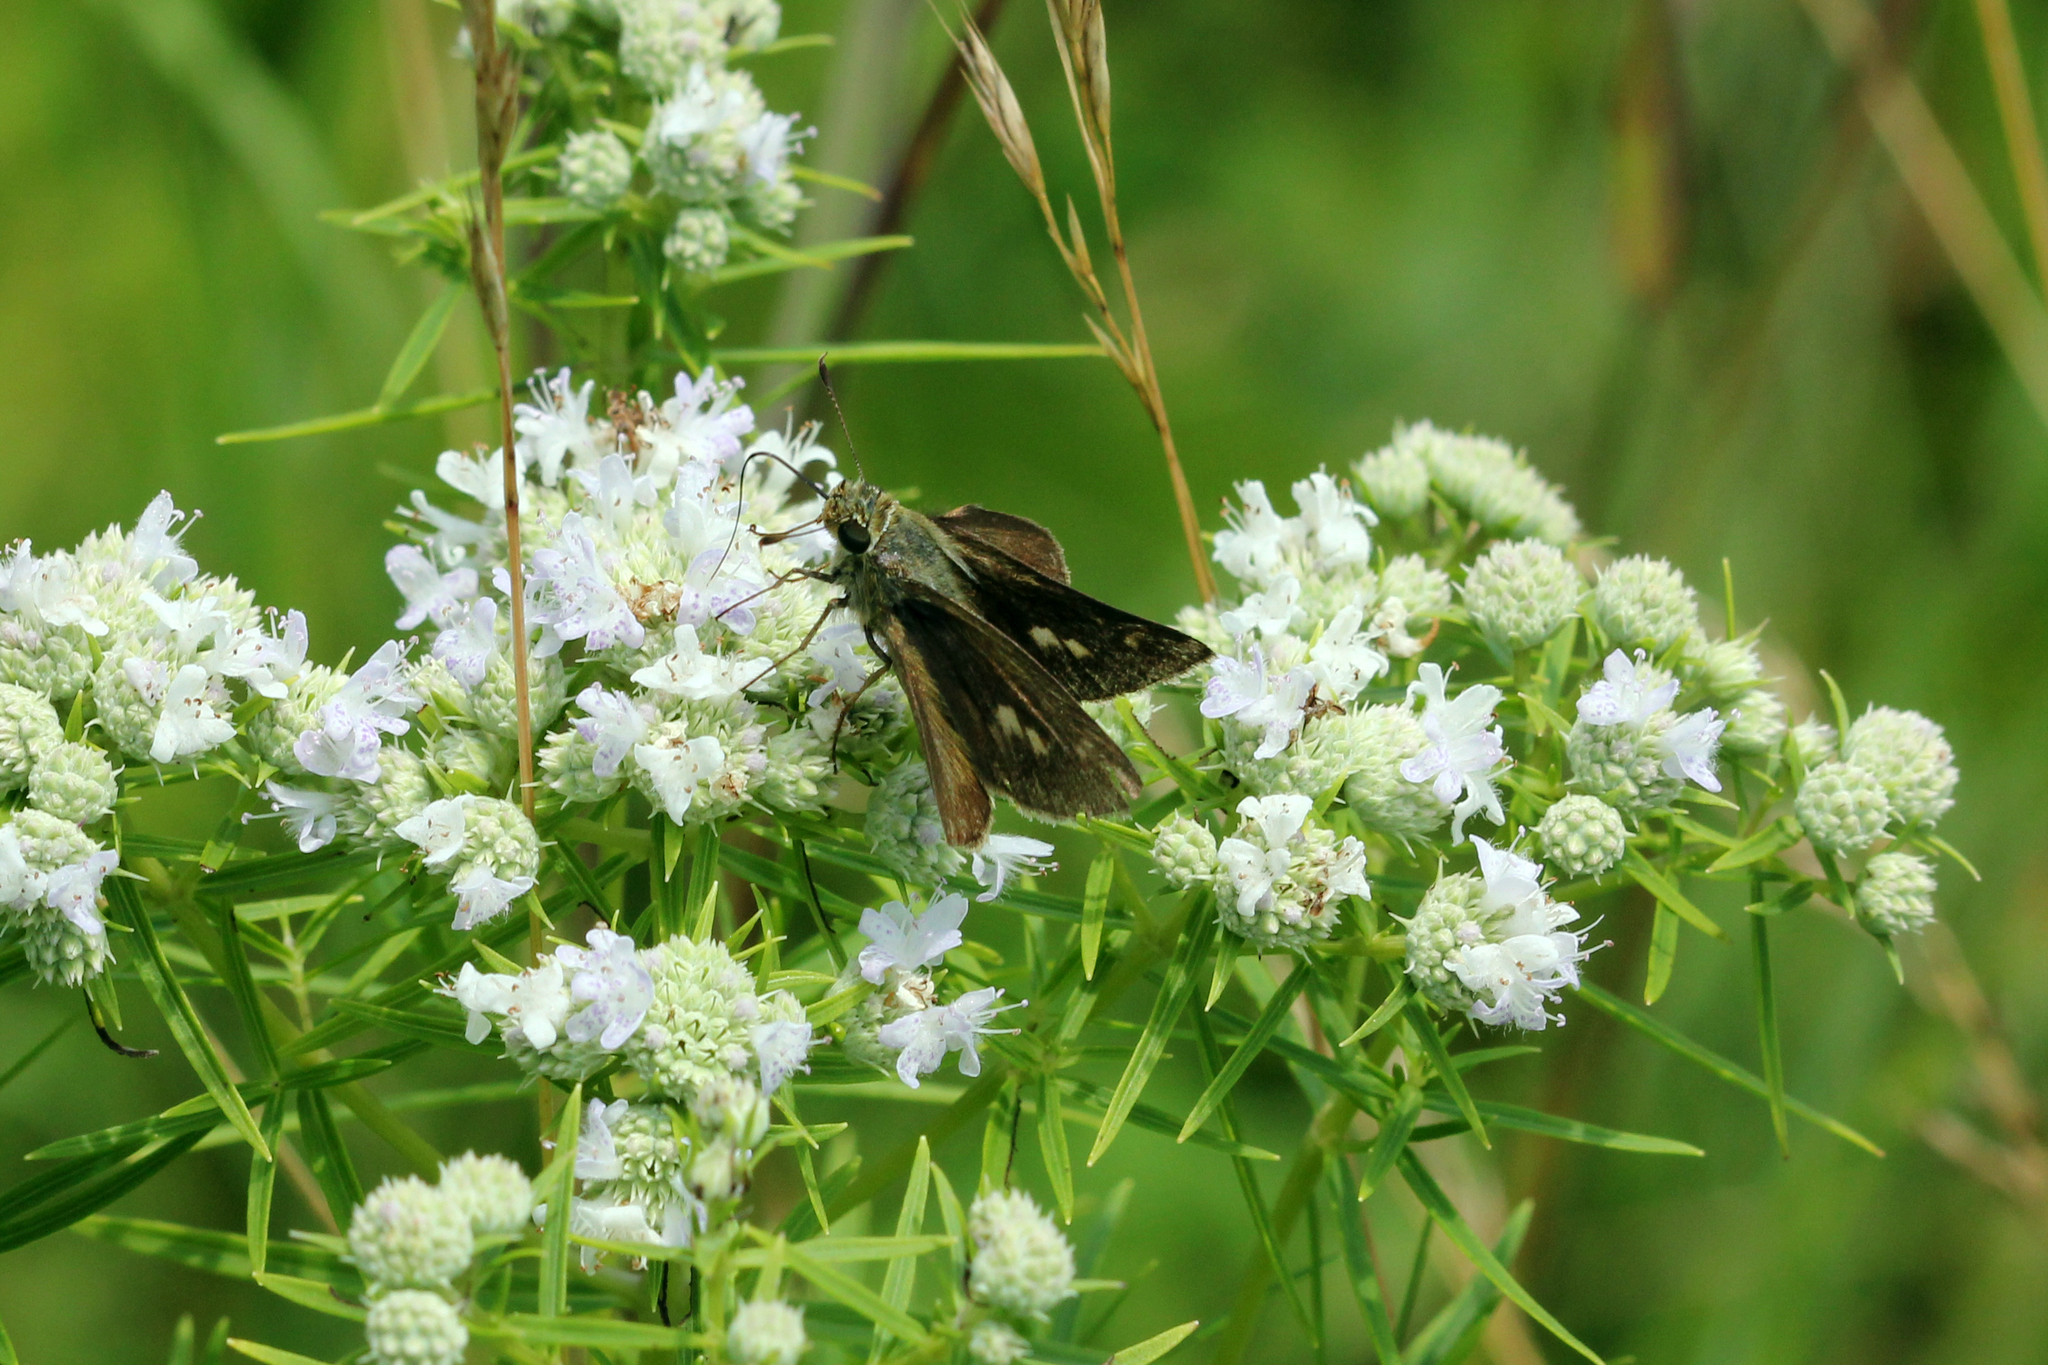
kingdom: Animalia
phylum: Arthropoda
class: Insecta
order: Lepidoptera
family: Hesperiidae
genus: Polites
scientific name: Polites egeremet
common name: Northern broken-dash
